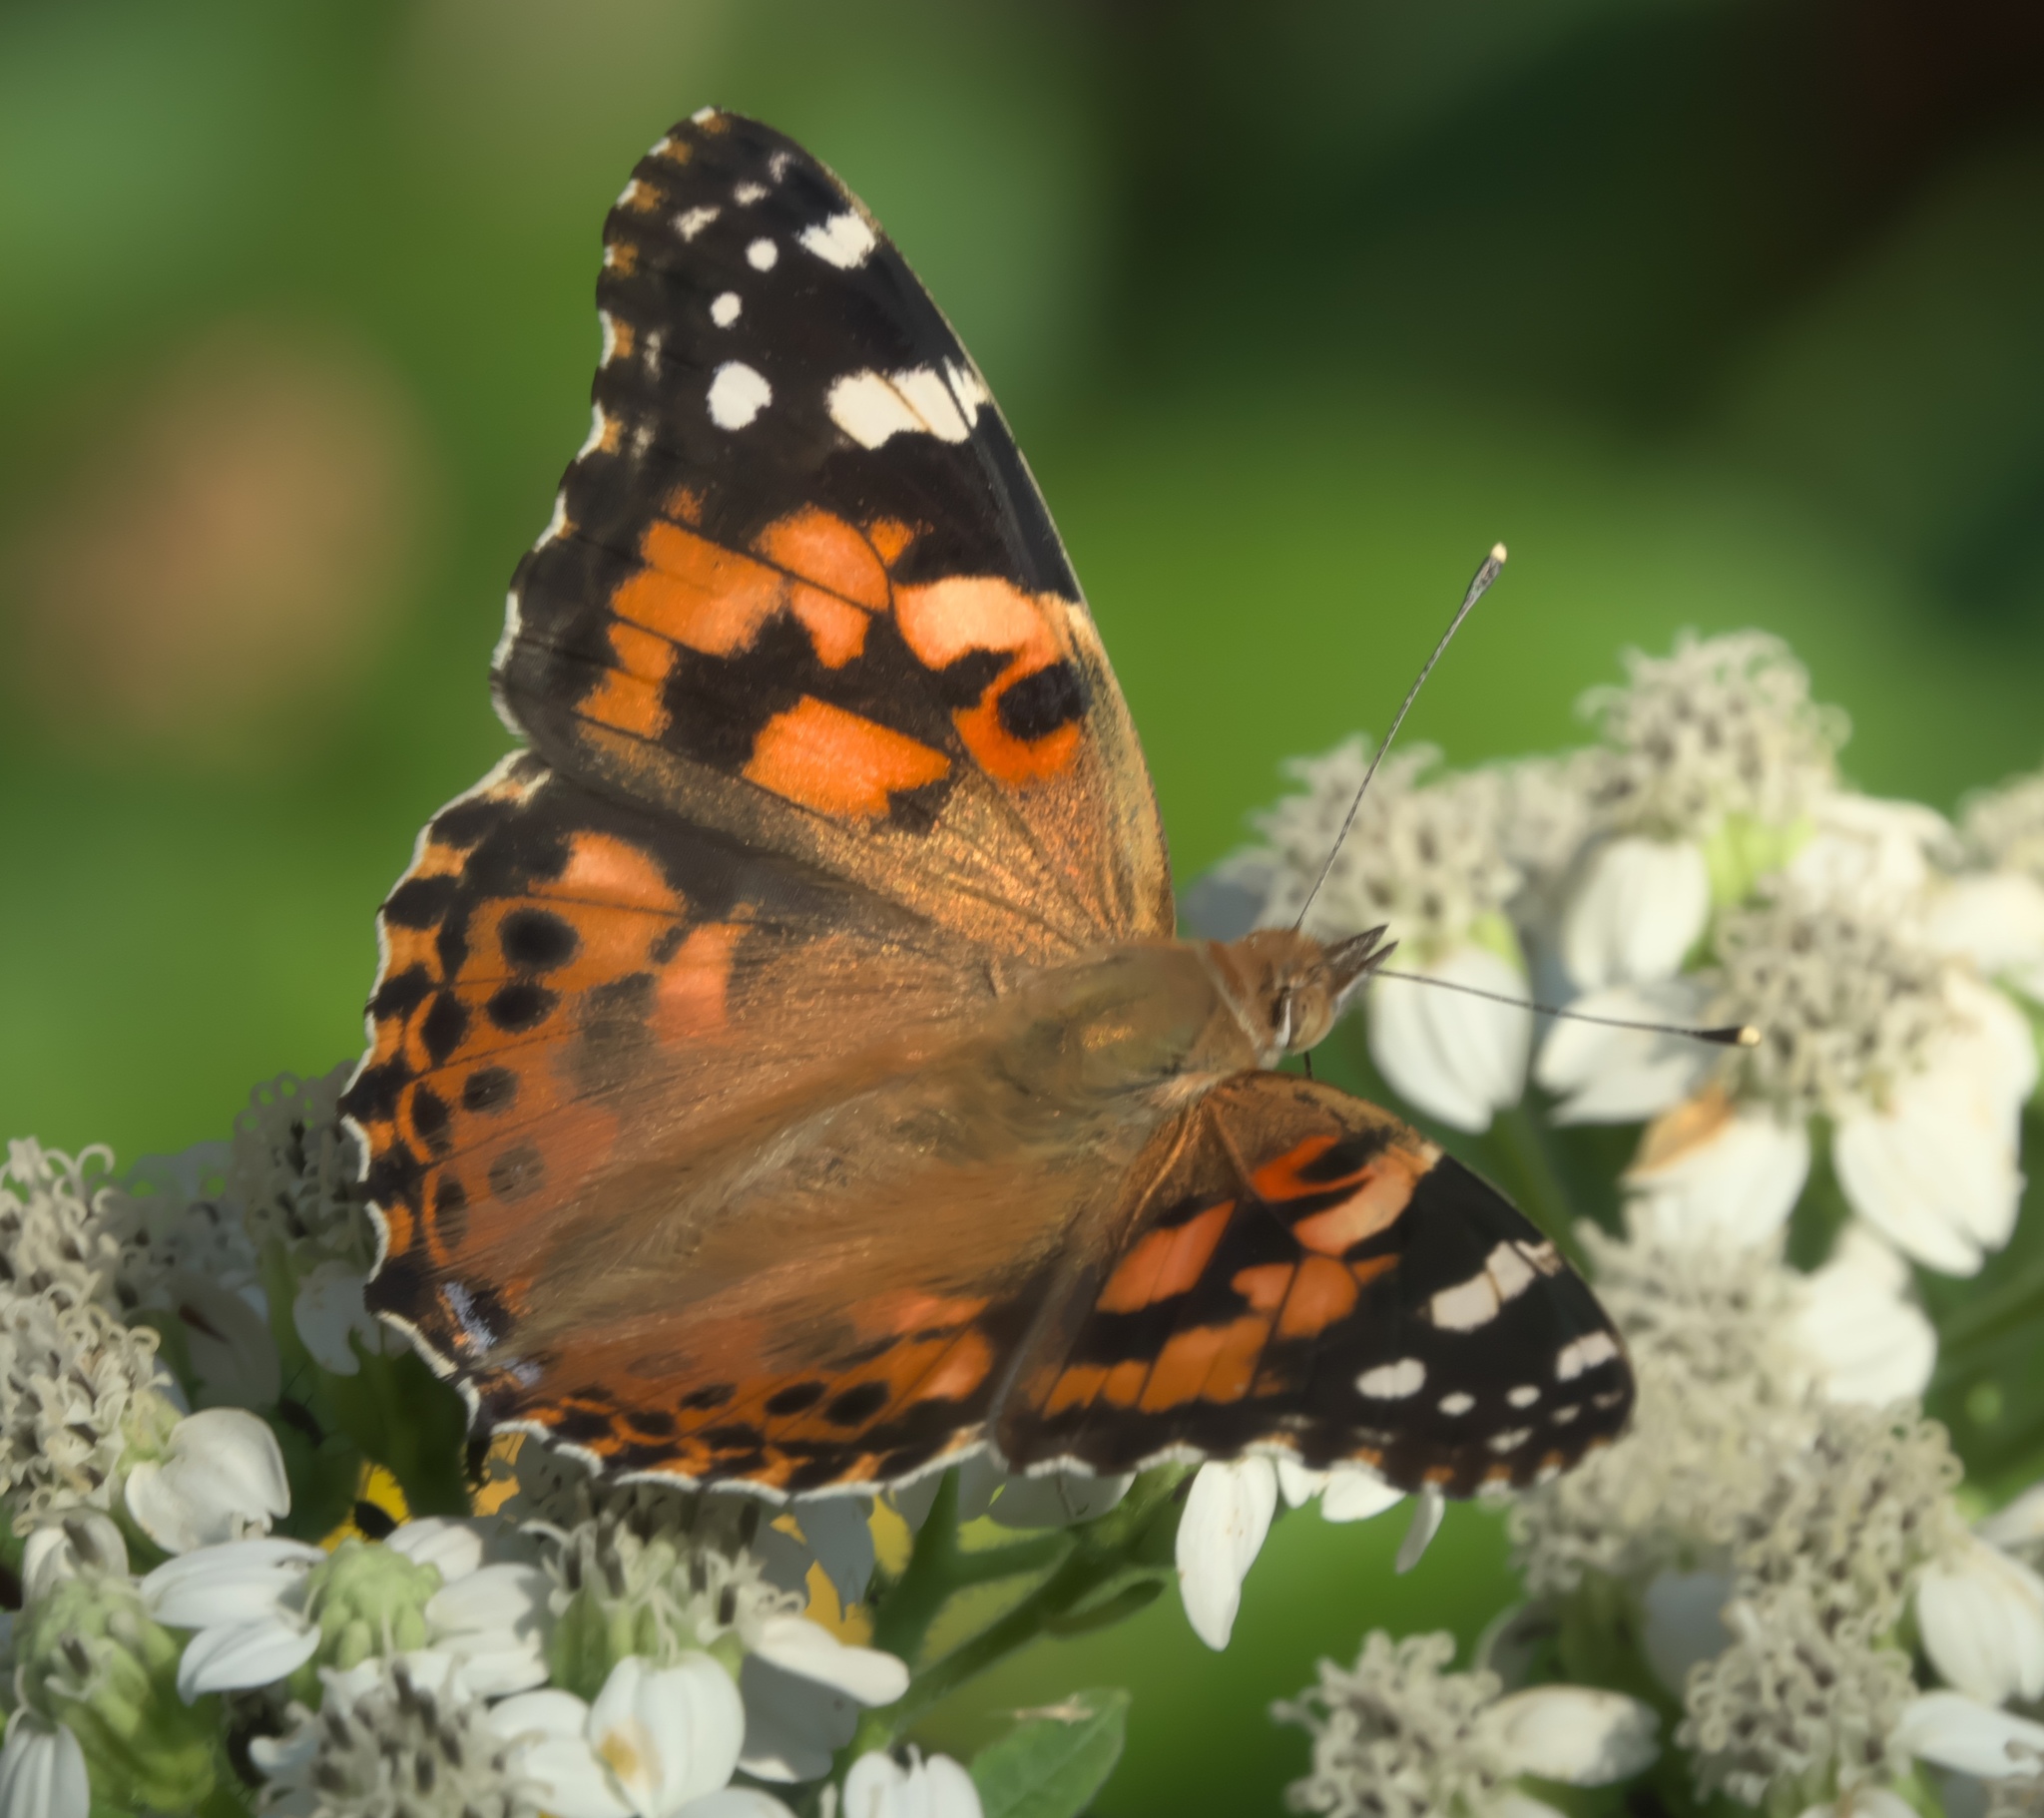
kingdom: Animalia
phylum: Arthropoda
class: Insecta
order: Lepidoptera
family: Nymphalidae
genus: Vanessa
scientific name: Vanessa cardui
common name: Painted lady
